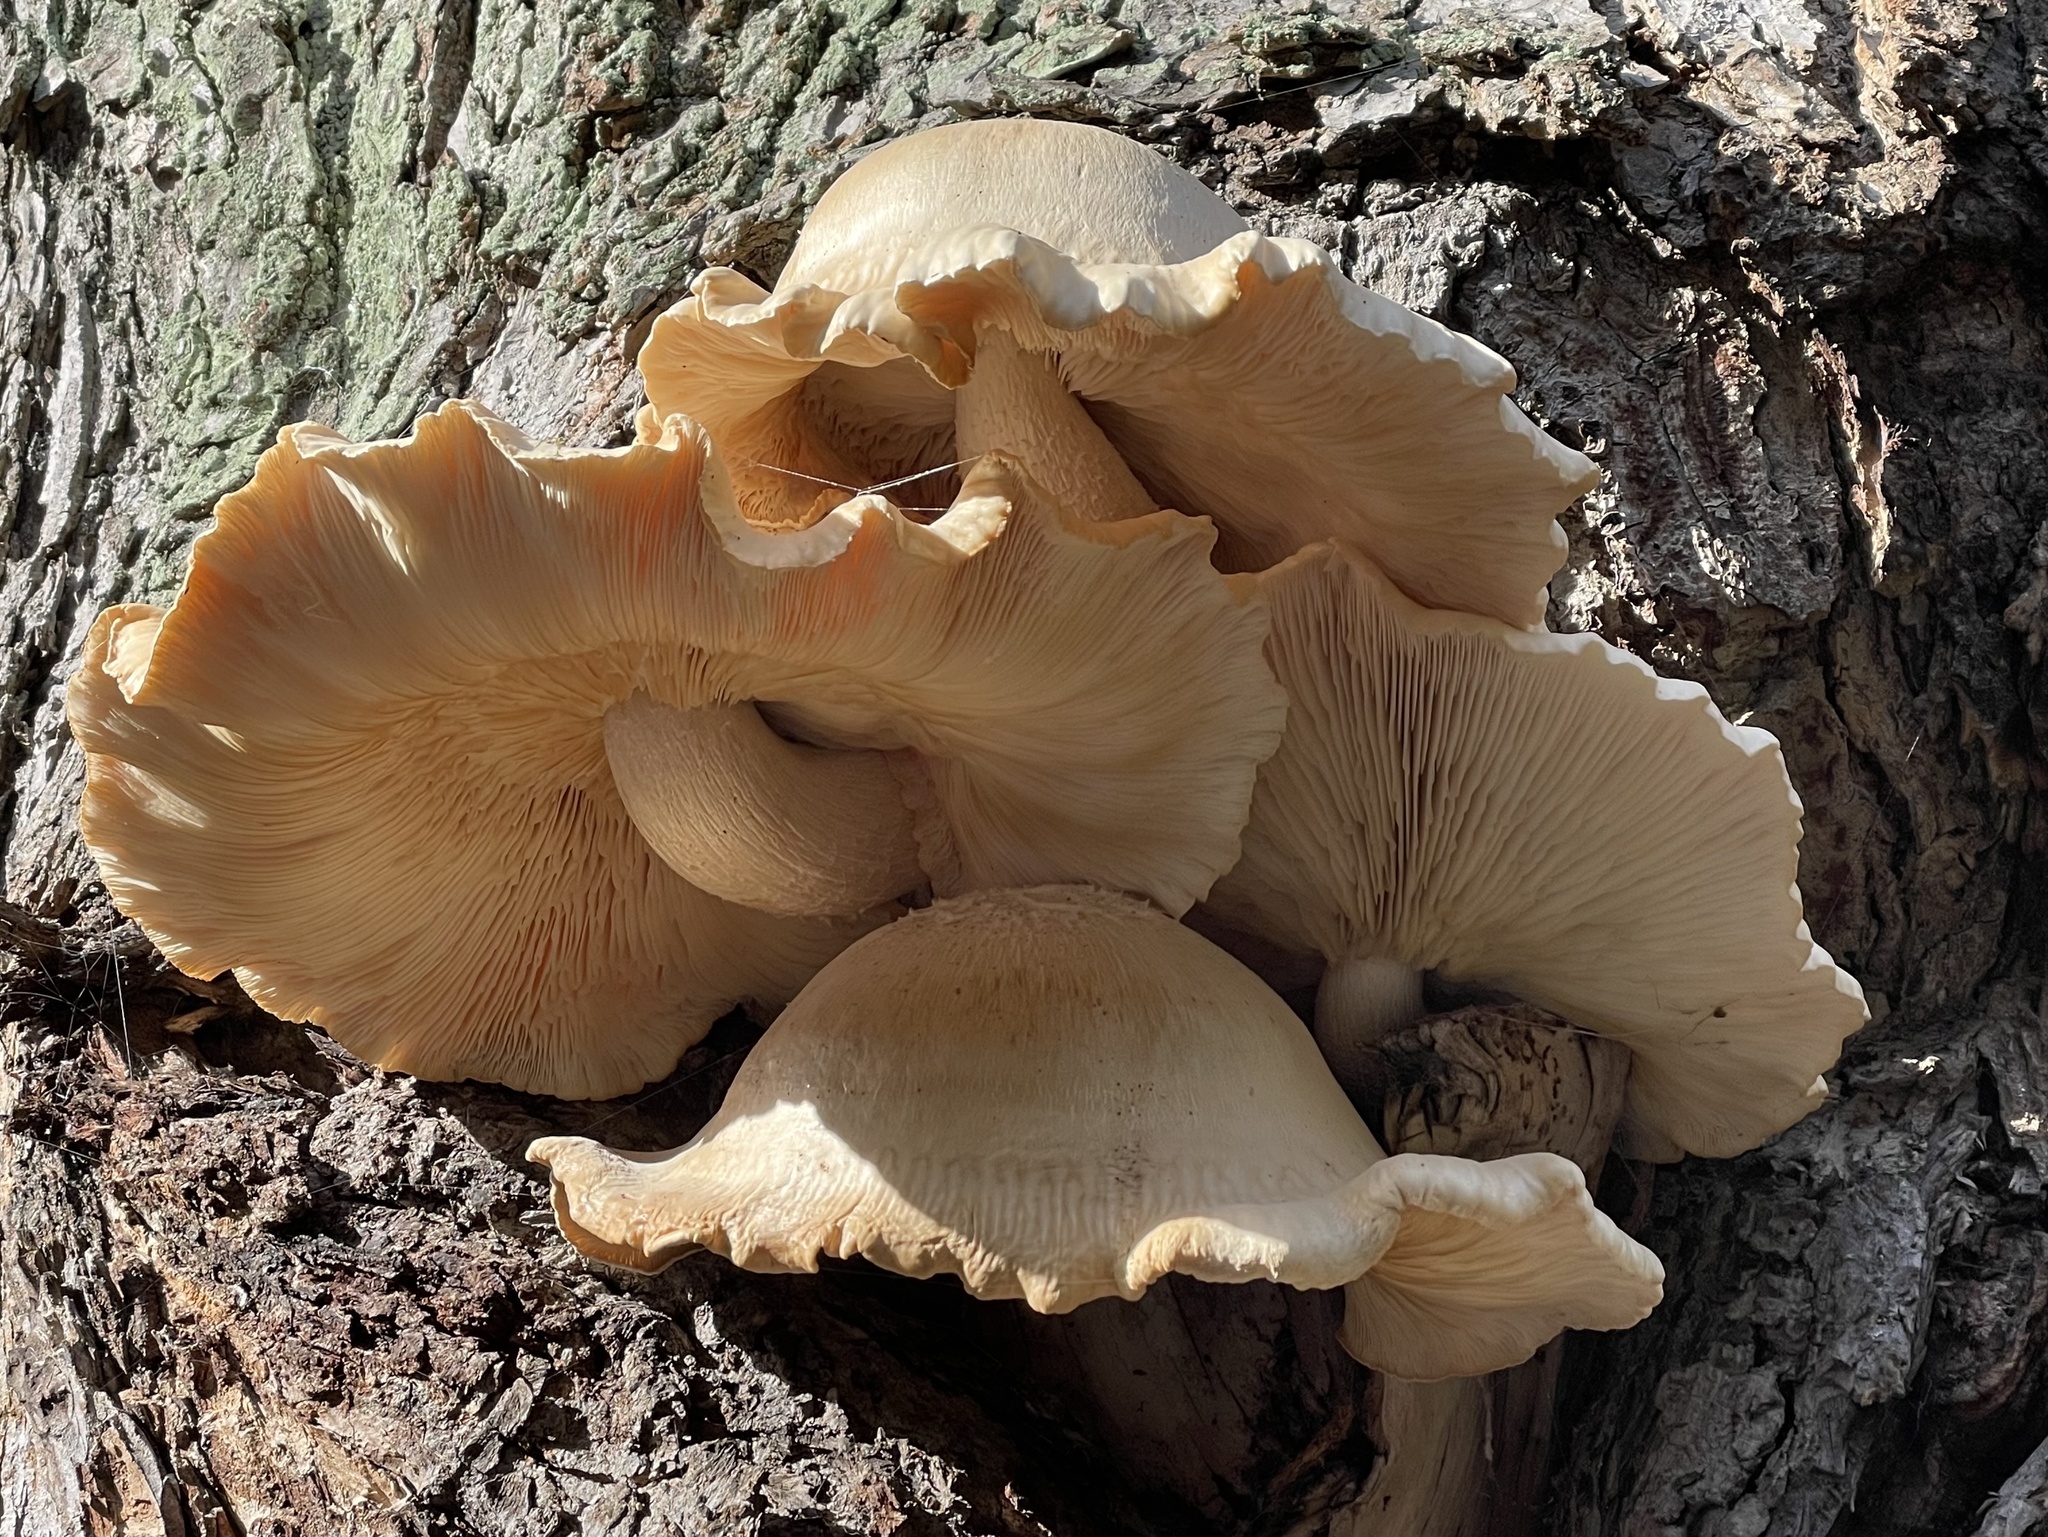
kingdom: Fungi
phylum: Basidiomycota
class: Agaricomycetes
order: Agaricales
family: Lyophyllaceae
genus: Hypsizygus
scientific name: Hypsizygus ulmarius
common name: Elm leech
